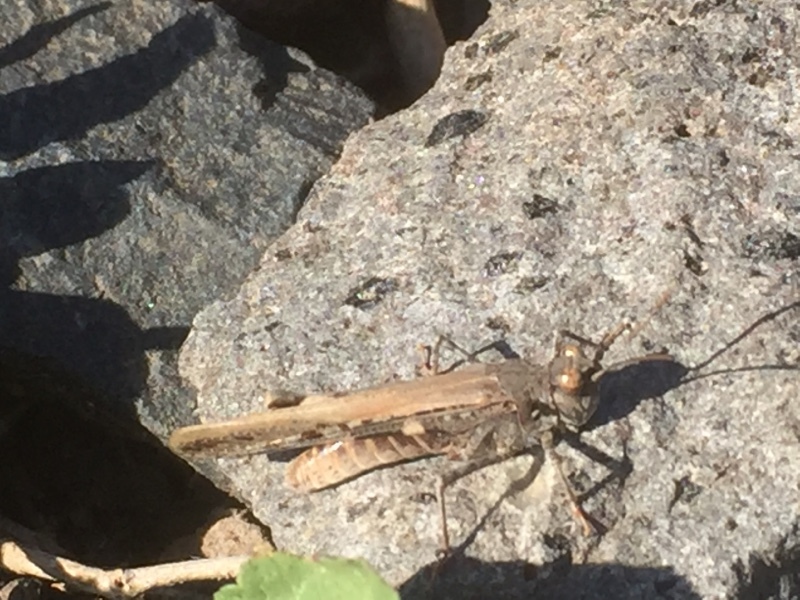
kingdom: Animalia
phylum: Arthropoda
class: Insecta
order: Orthoptera
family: Acrididae
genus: Acrotylus
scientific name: Acrotylus insubricus
